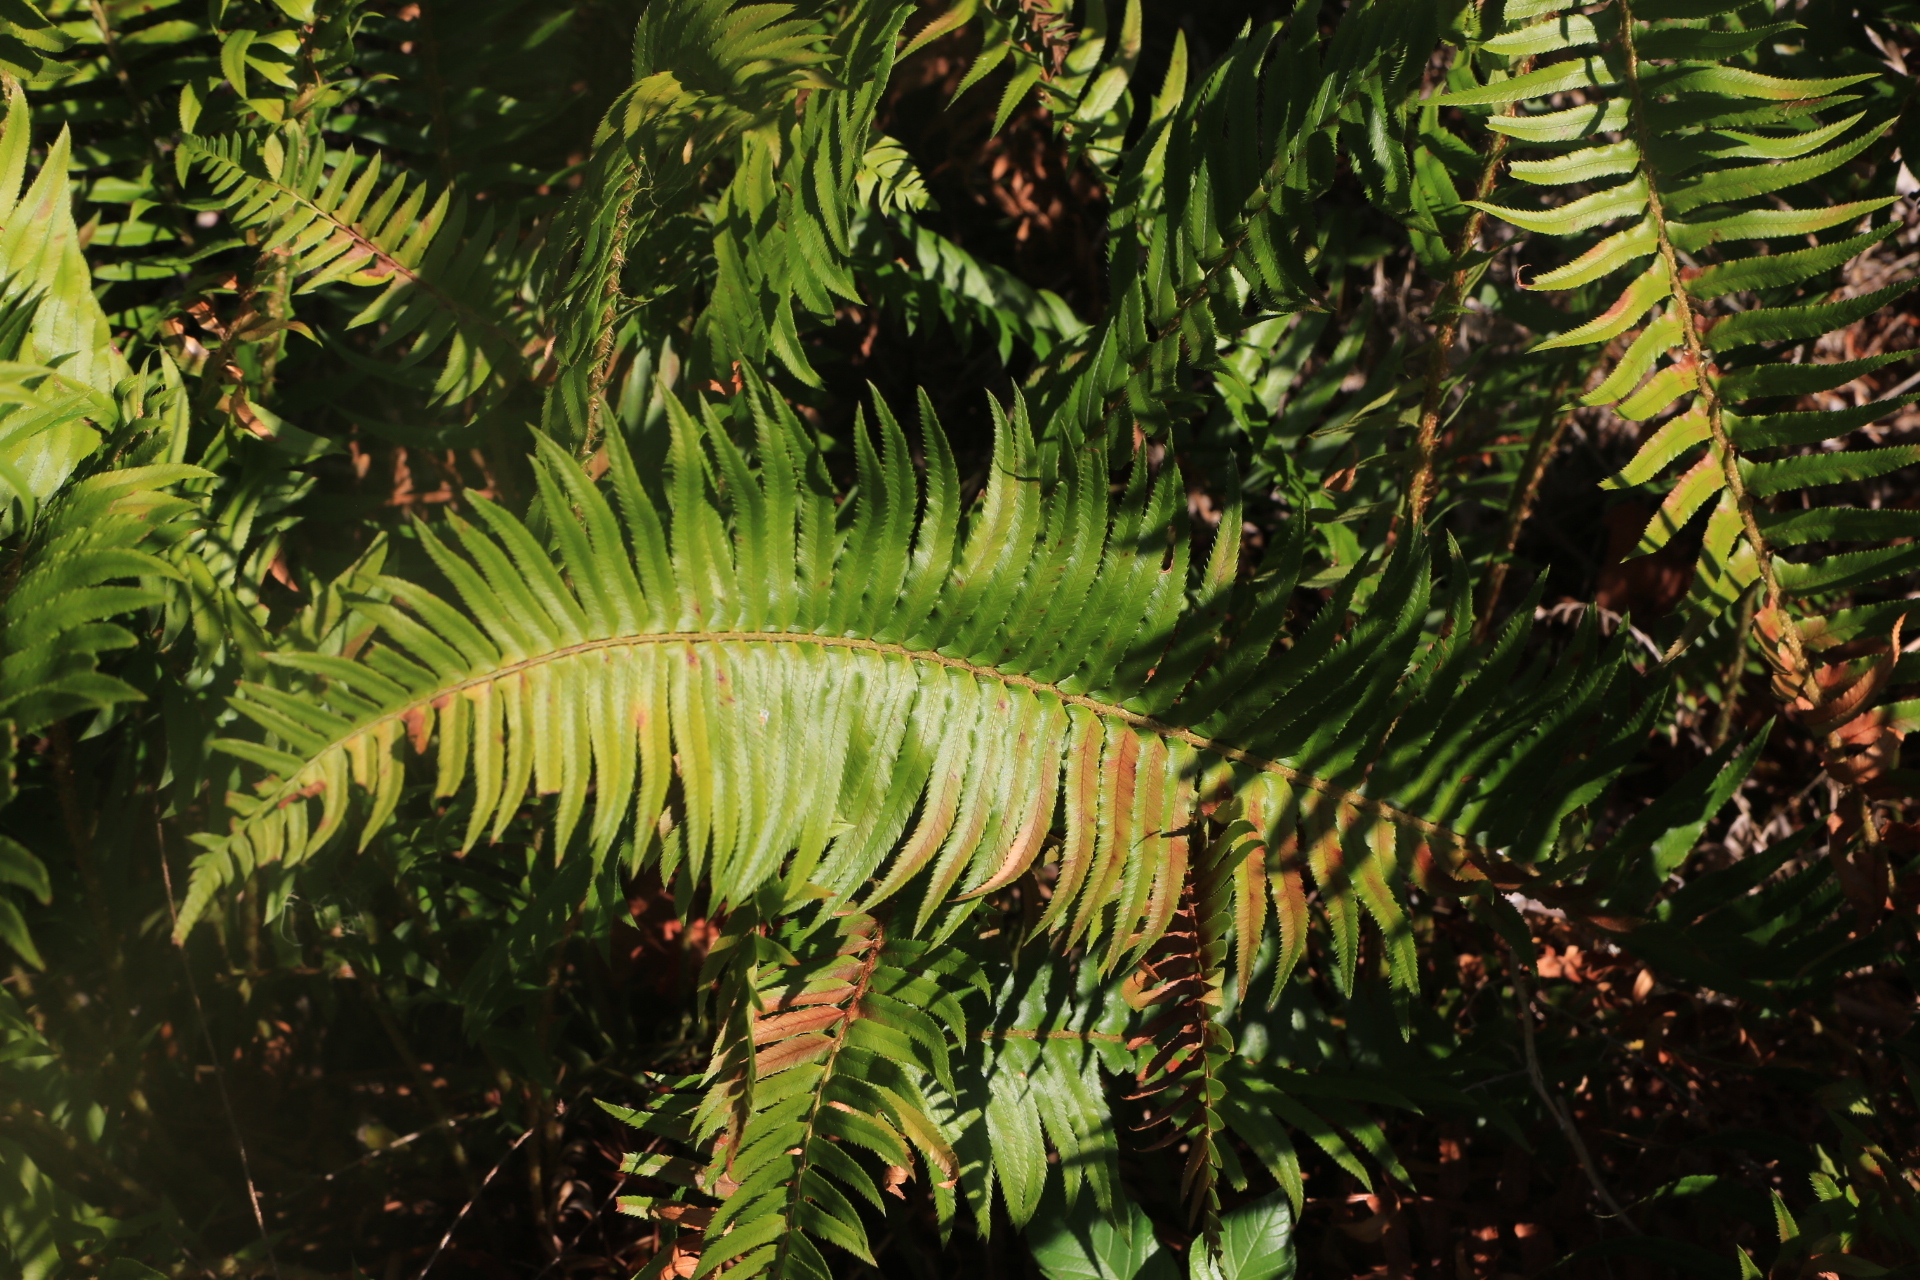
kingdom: Plantae
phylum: Tracheophyta
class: Polypodiopsida
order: Polypodiales
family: Dryopteridaceae
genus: Polystichum
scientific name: Polystichum munitum
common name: Western sword-fern
